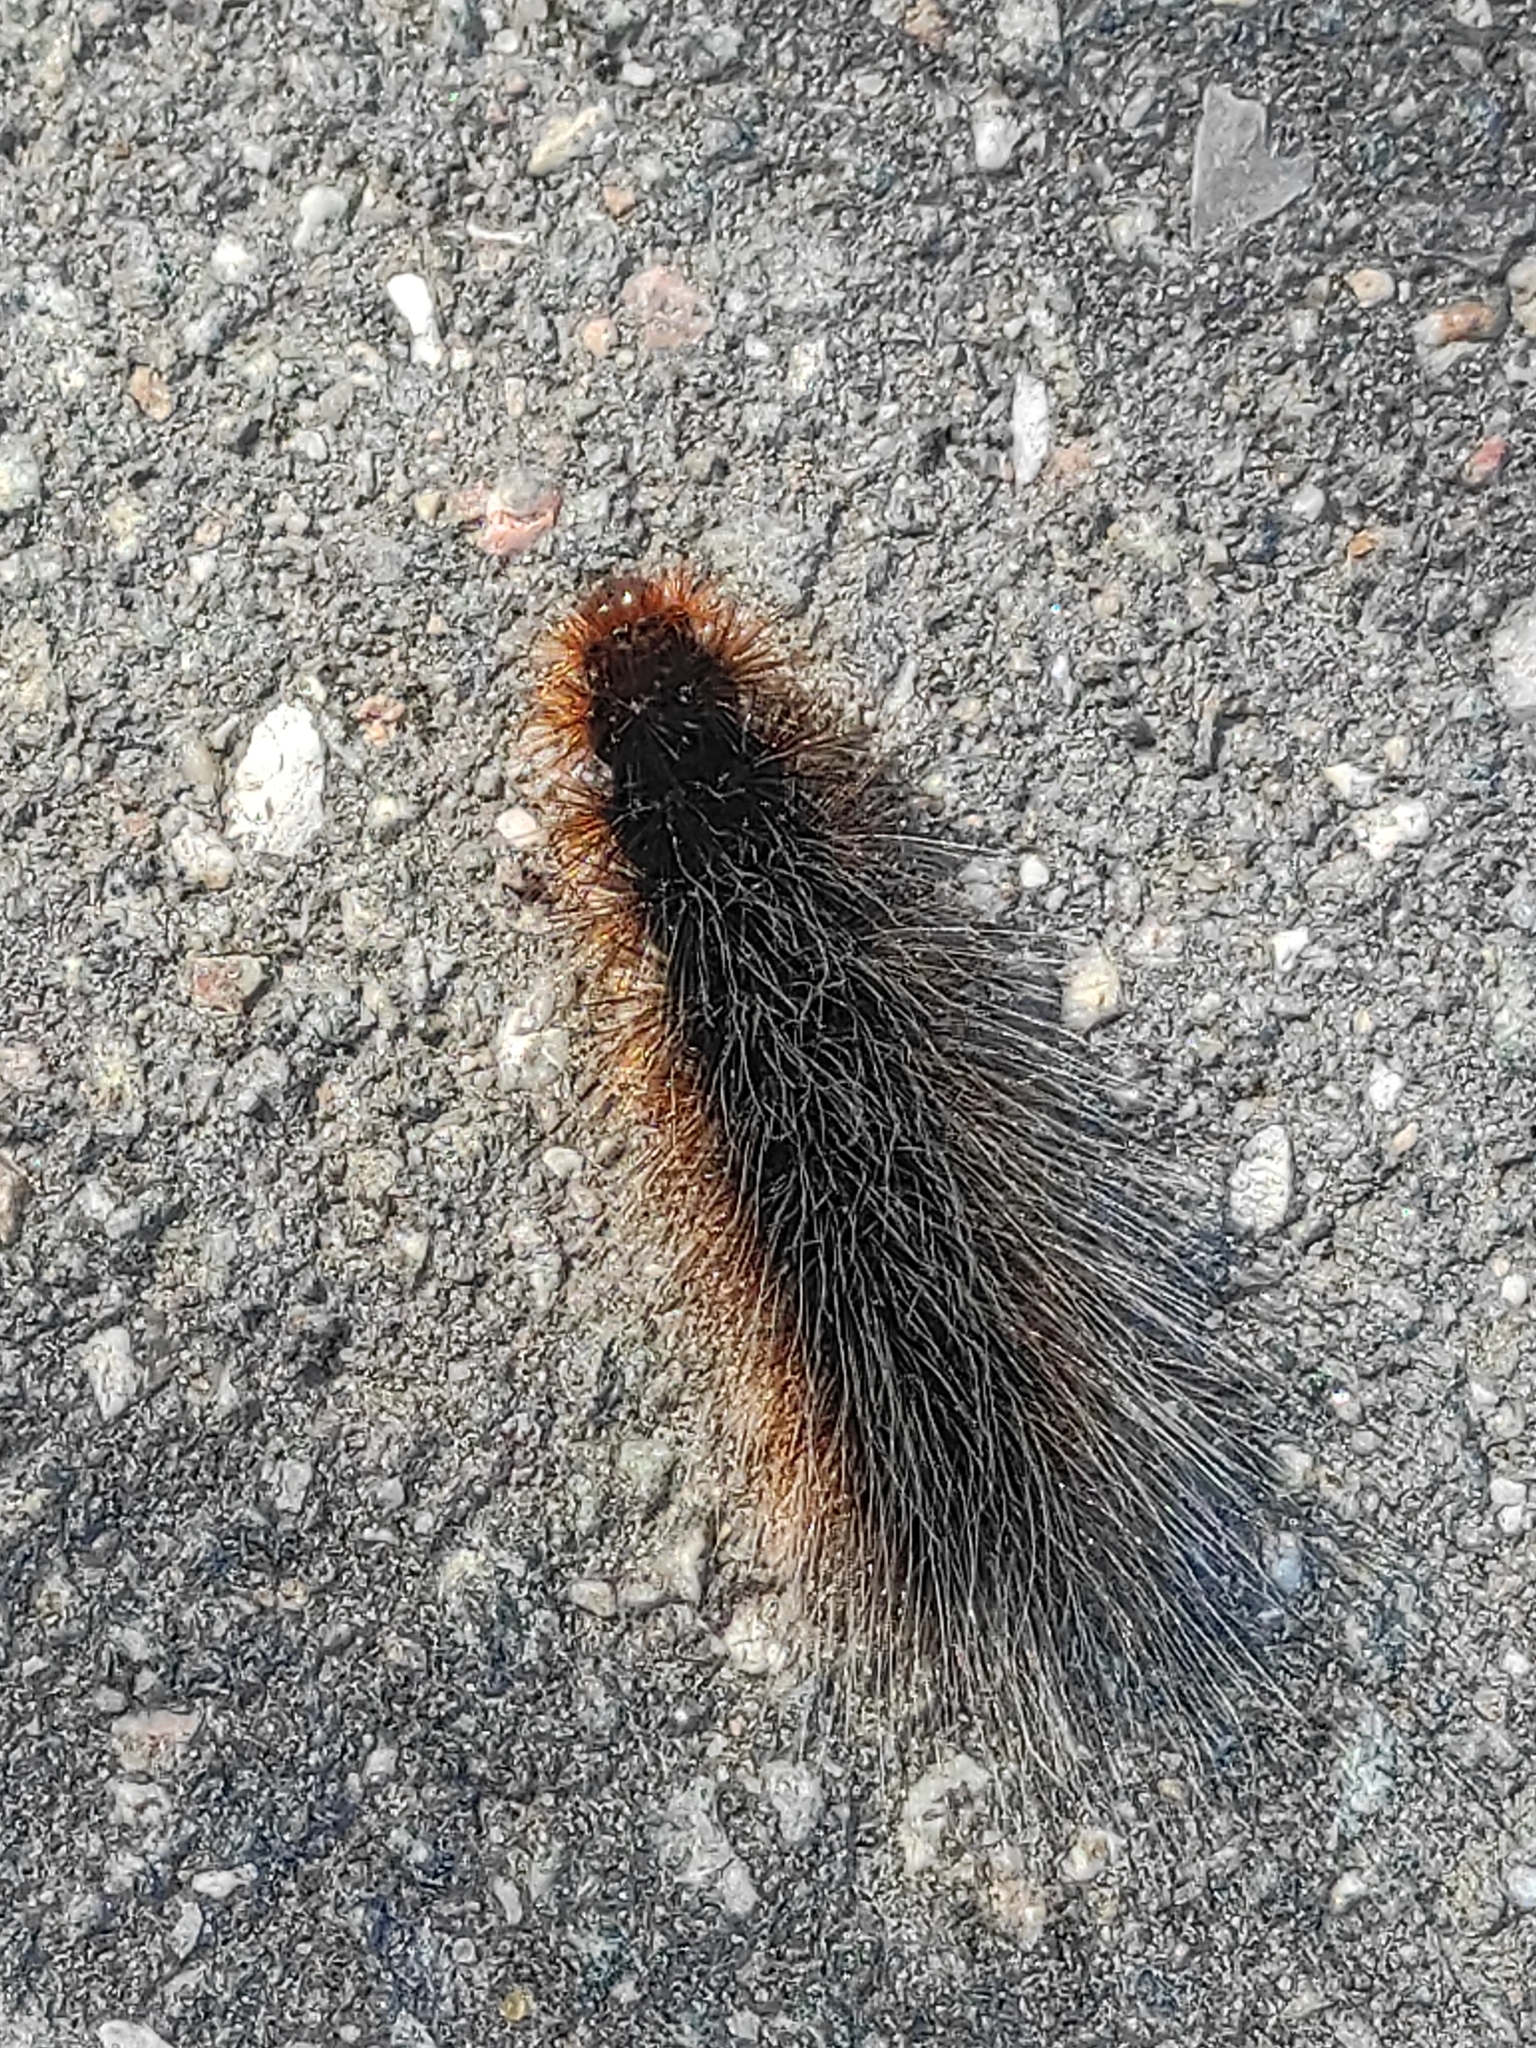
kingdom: Animalia
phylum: Arthropoda
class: Insecta
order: Lepidoptera
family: Erebidae
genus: Arctia
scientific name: Arctia caja
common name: Garden tiger
